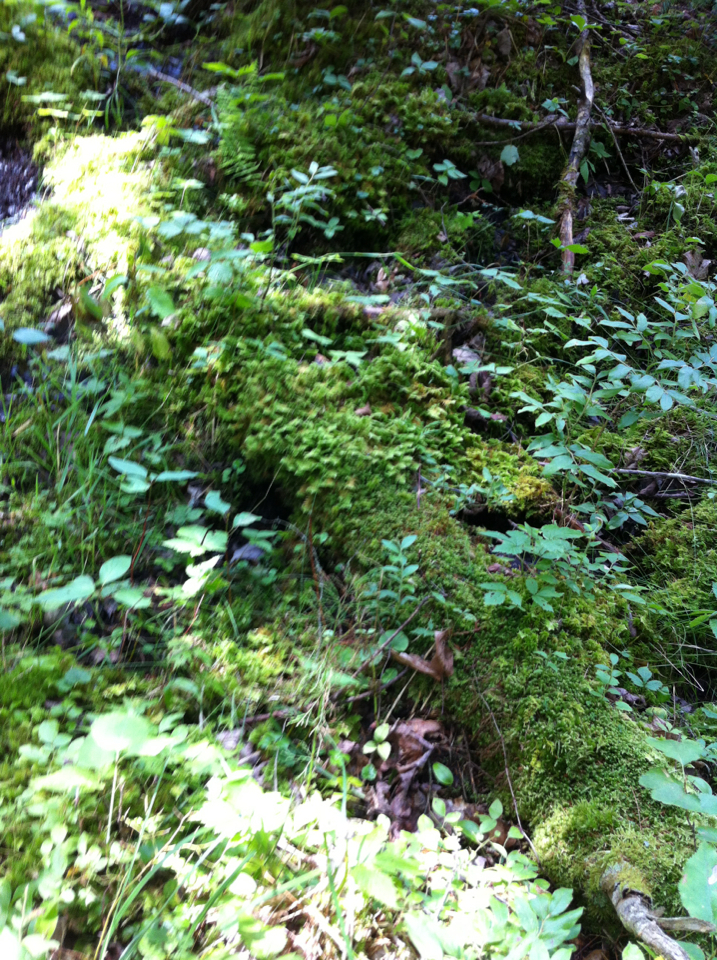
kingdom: Plantae
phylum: Bryophyta
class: Bryopsida
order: Hypnales
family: Hylocomiaceae
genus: Hylocomium
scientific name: Hylocomium splendens
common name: Stairstep moss
